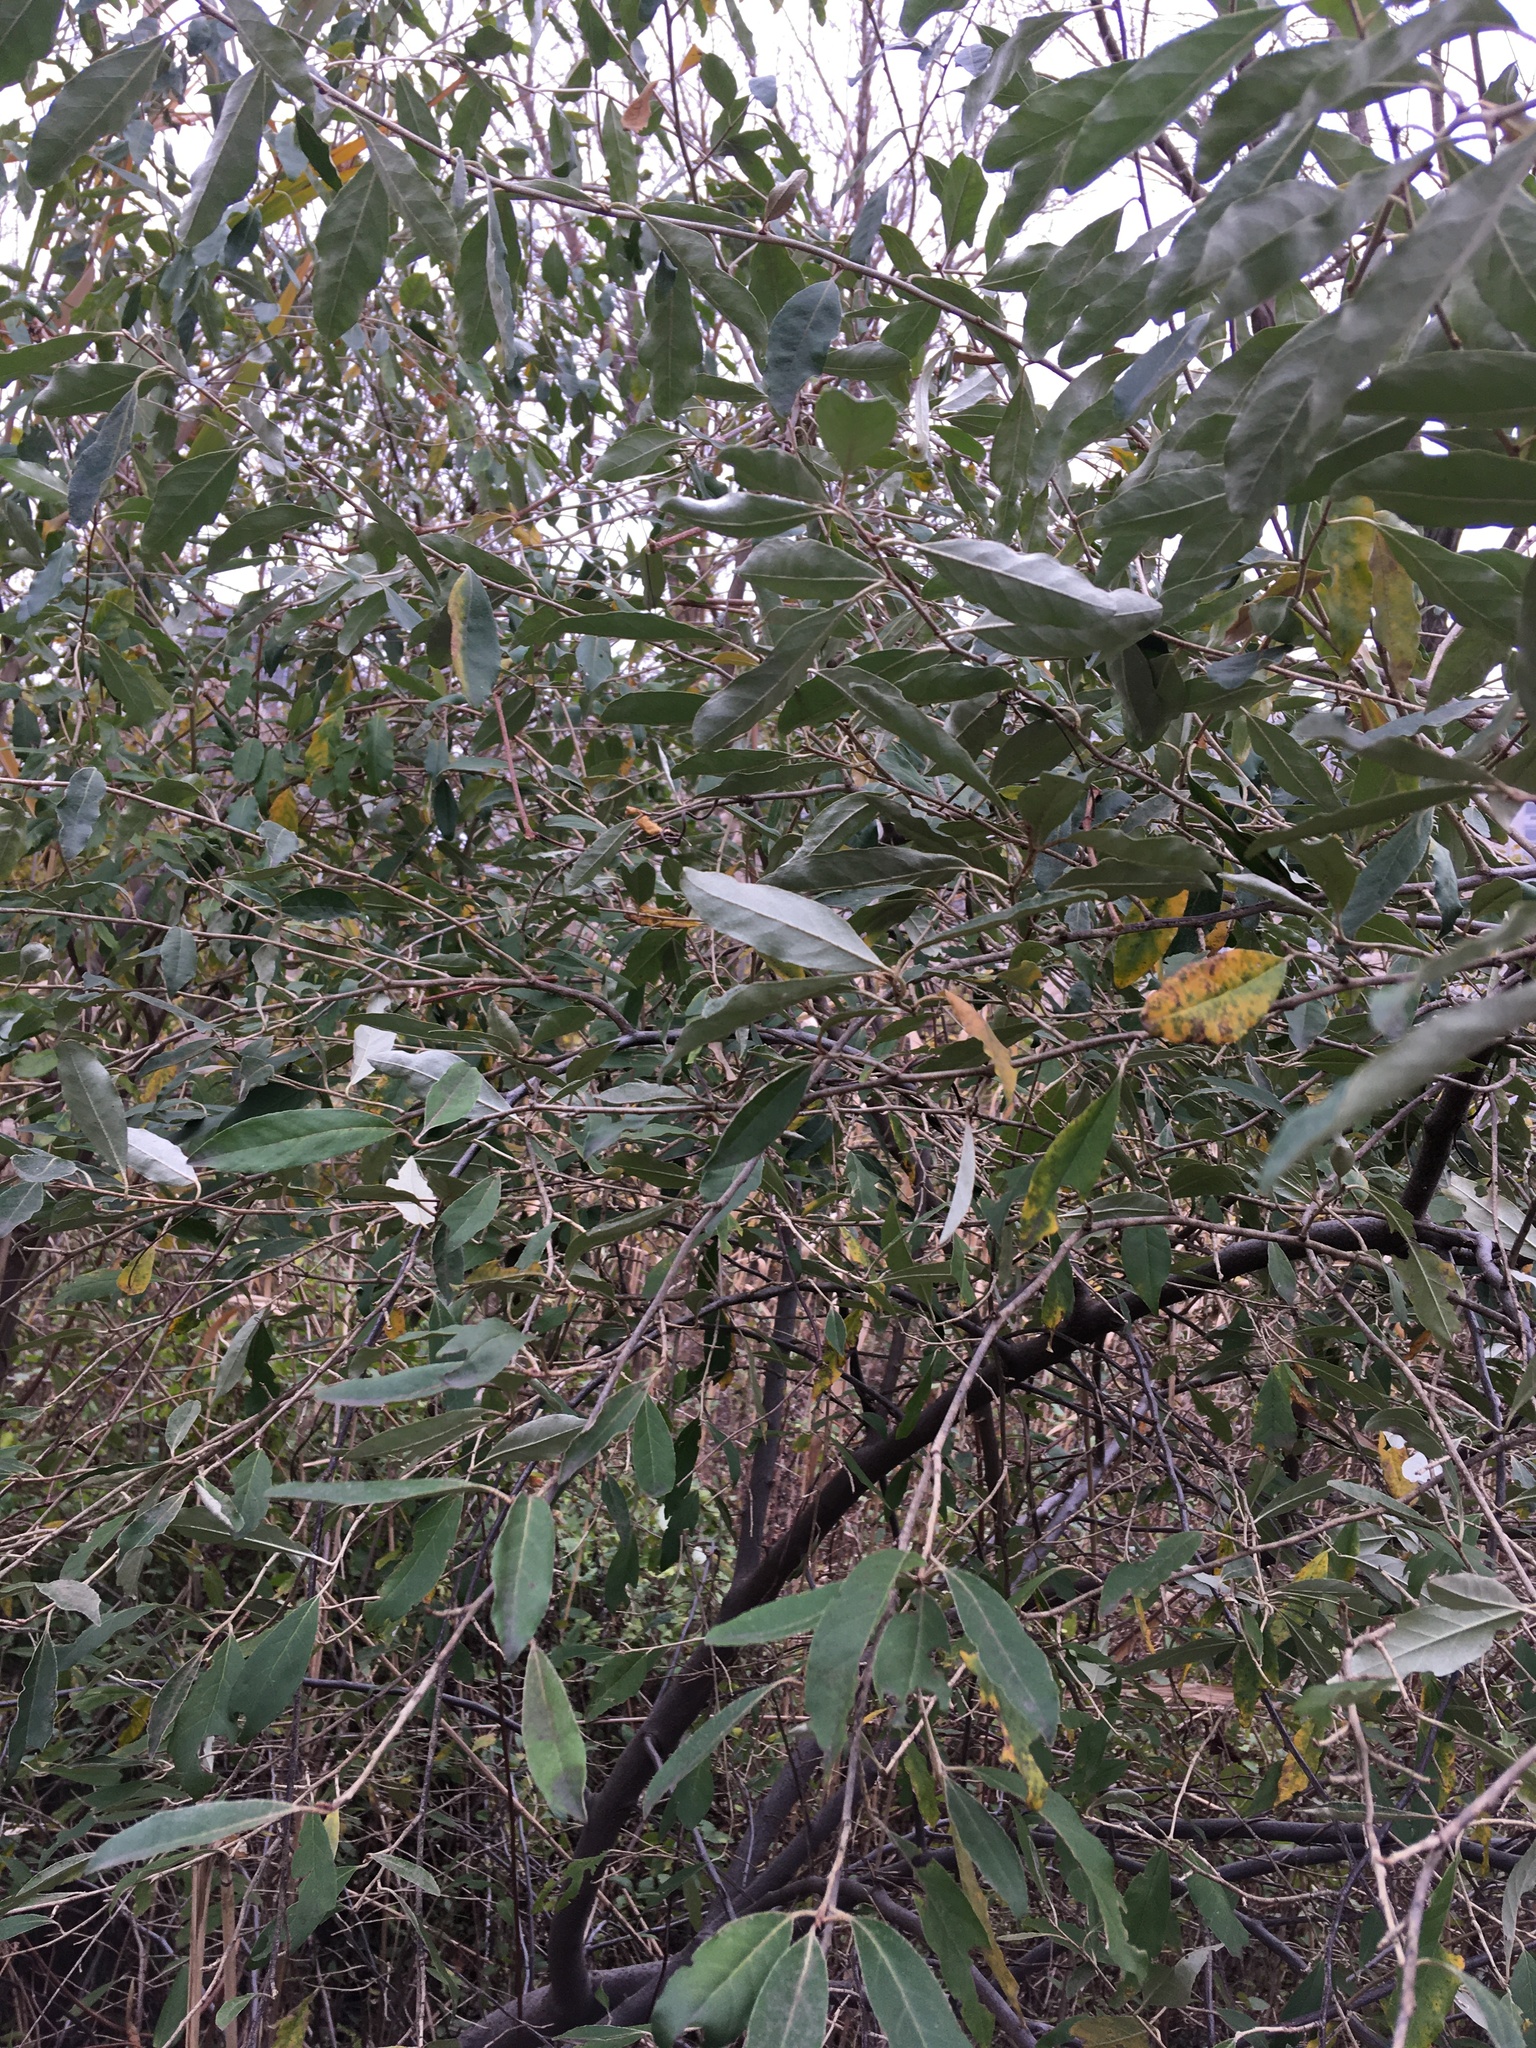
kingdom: Plantae
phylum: Tracheophyta
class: Magnoliopsida
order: Rosales
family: Elaeagnaceae
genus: Elaeagnus
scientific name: Elaeagnus umbellata
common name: Autumn olive
